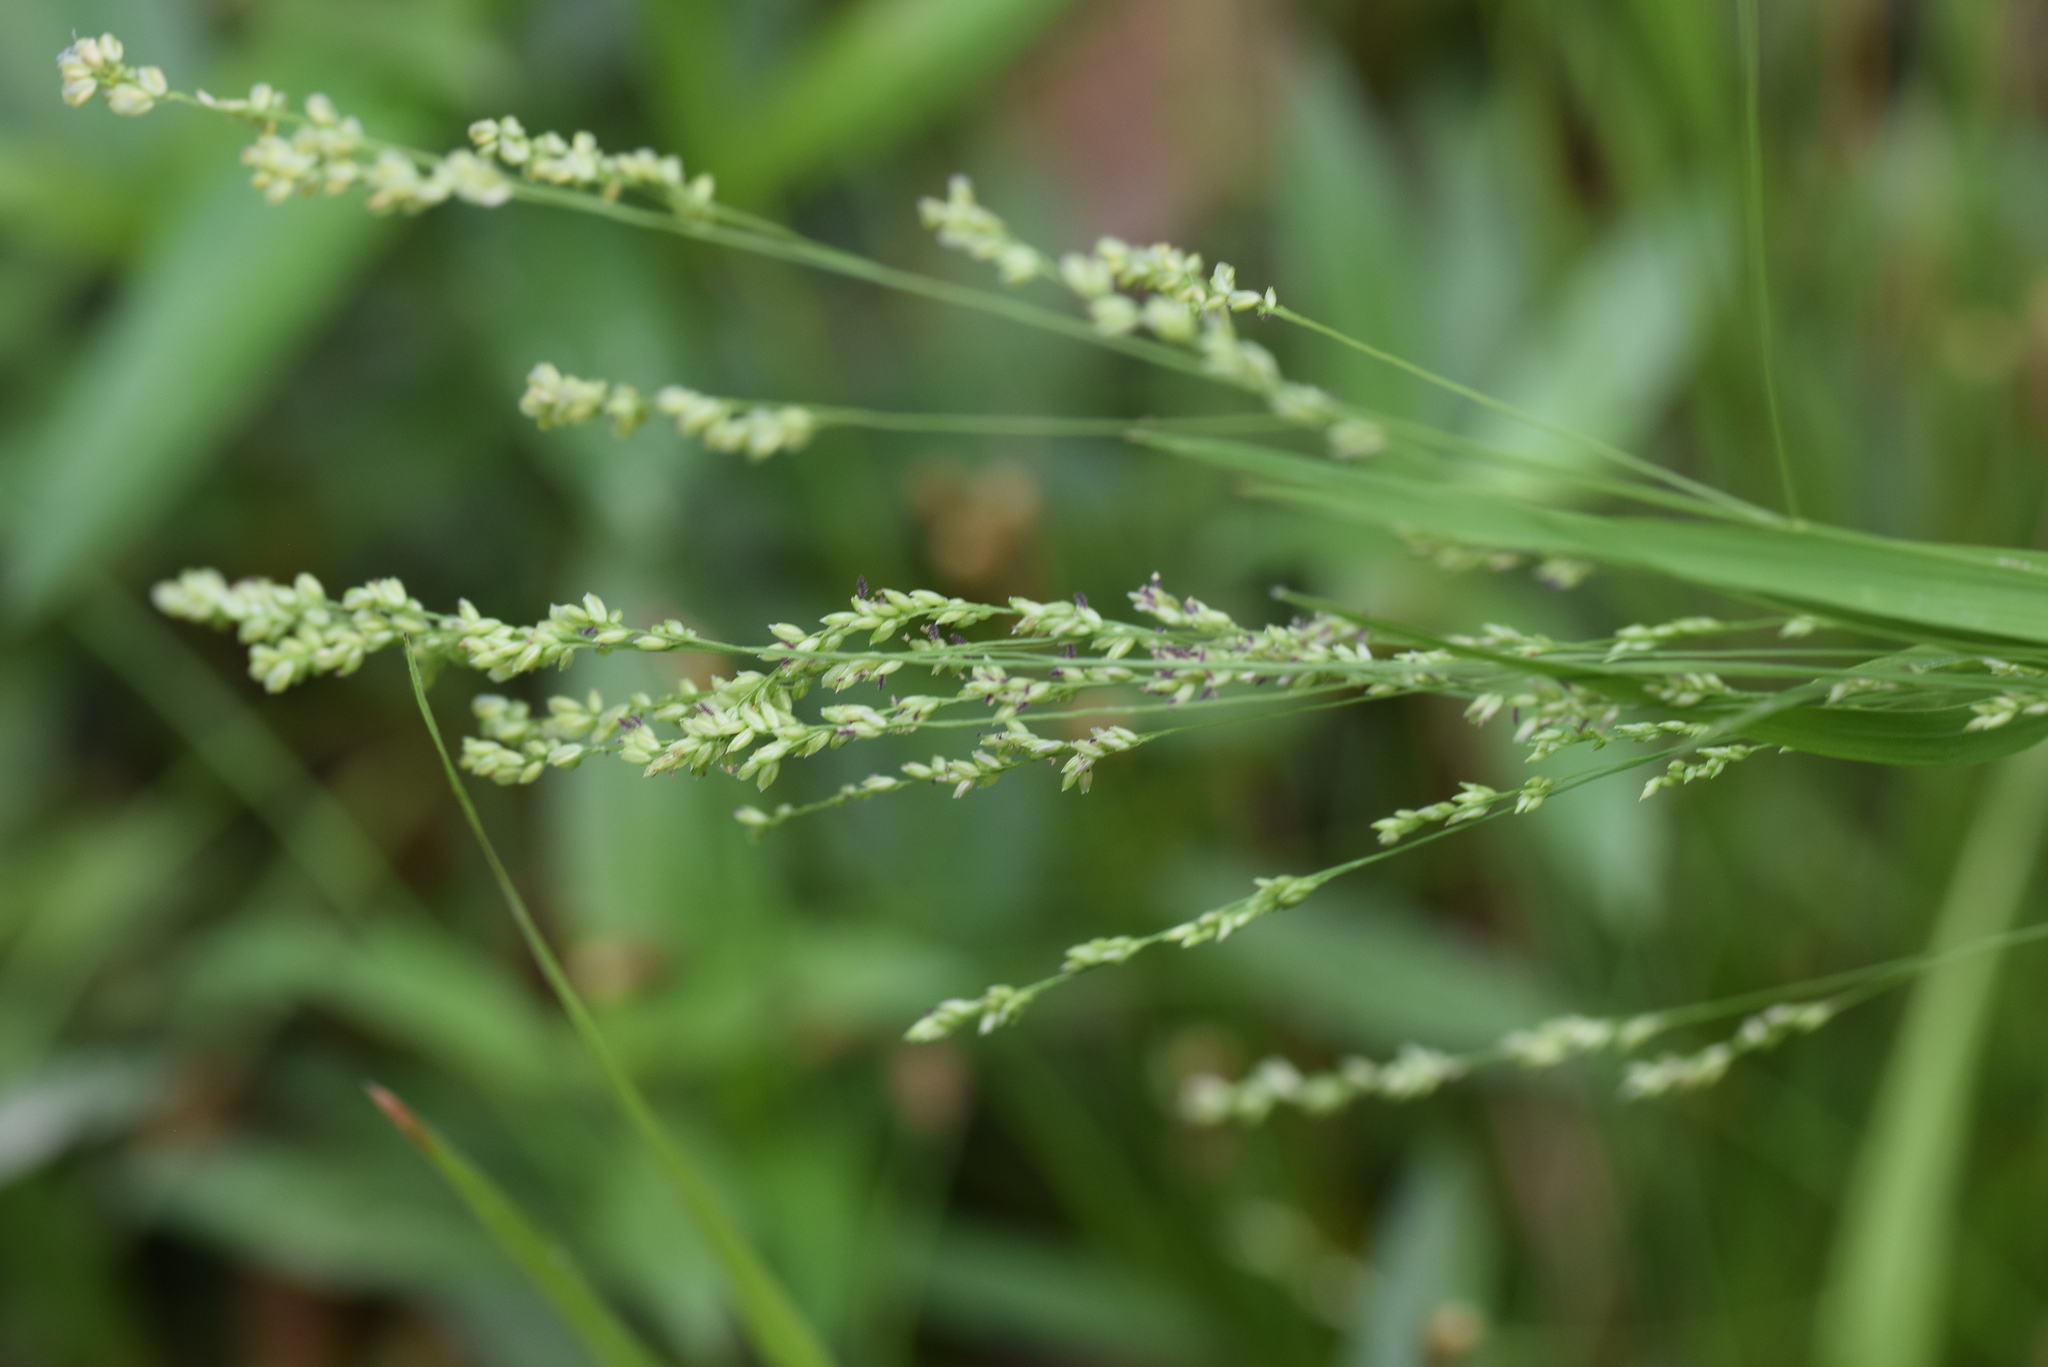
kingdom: Plantae
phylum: Tracheophyta
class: Liliopsida
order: Poales
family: Poaceae
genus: Steinchisma
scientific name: Steinchisma hians
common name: Gaping panic grass
